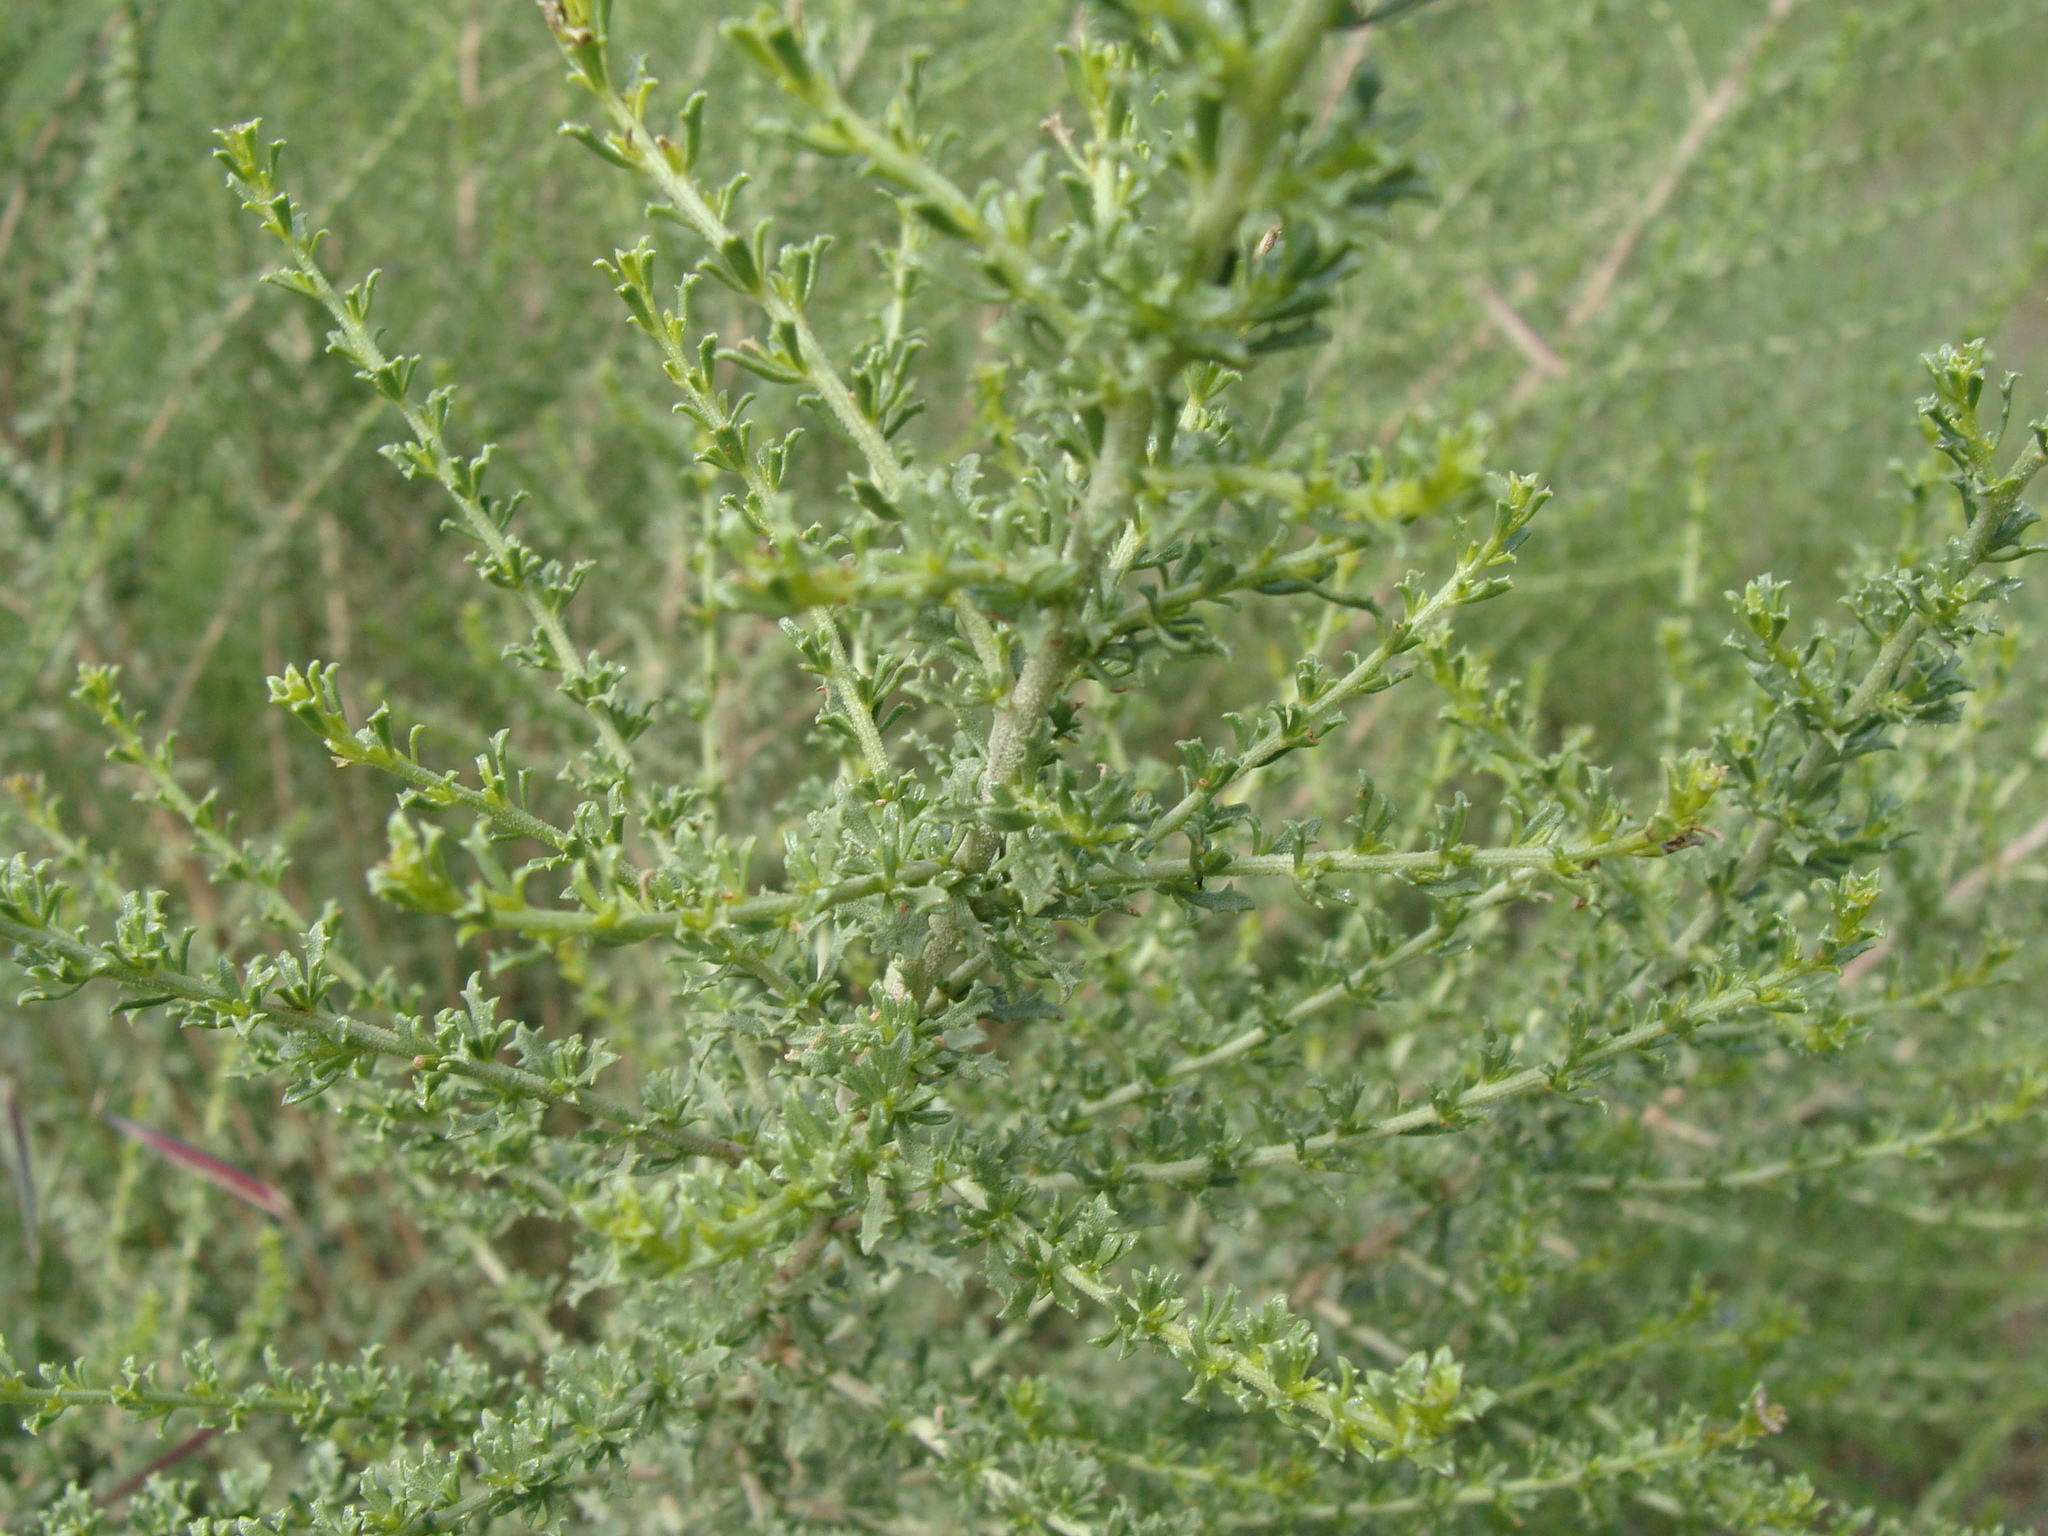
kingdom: Plantae
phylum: Tracheophyta
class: Magnoliopsida
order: Asterales
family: Asteraceae
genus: Baccharis
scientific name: Baccharis pteronioides
